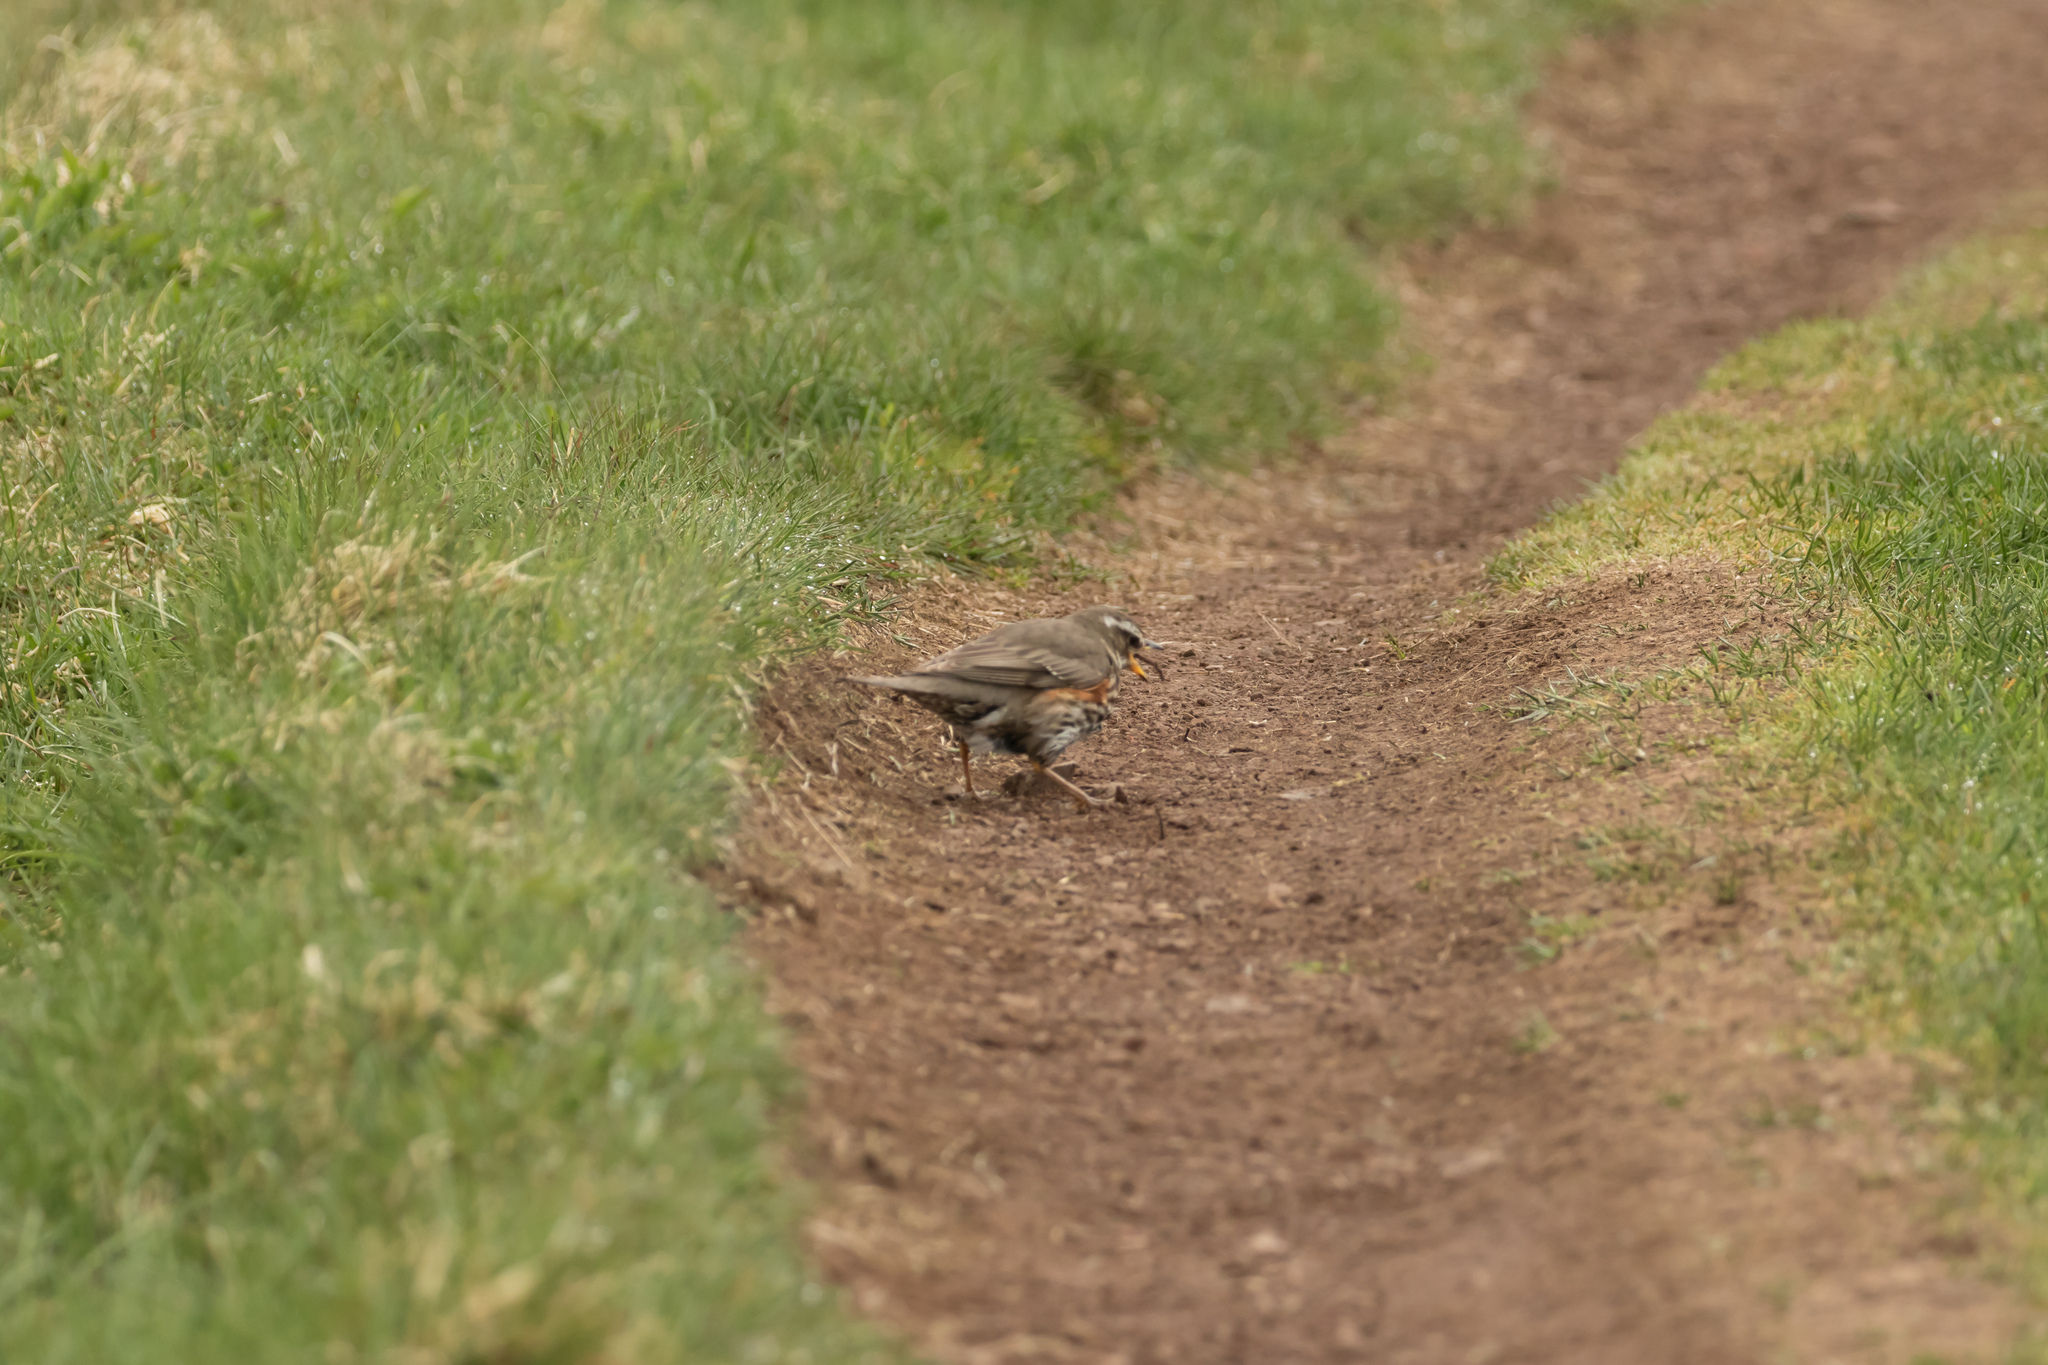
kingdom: Animalia
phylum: Chordata
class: Aves
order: Passeriformes
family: Turdidae
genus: Turdus
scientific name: Turdus iliacus
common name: Redwing
